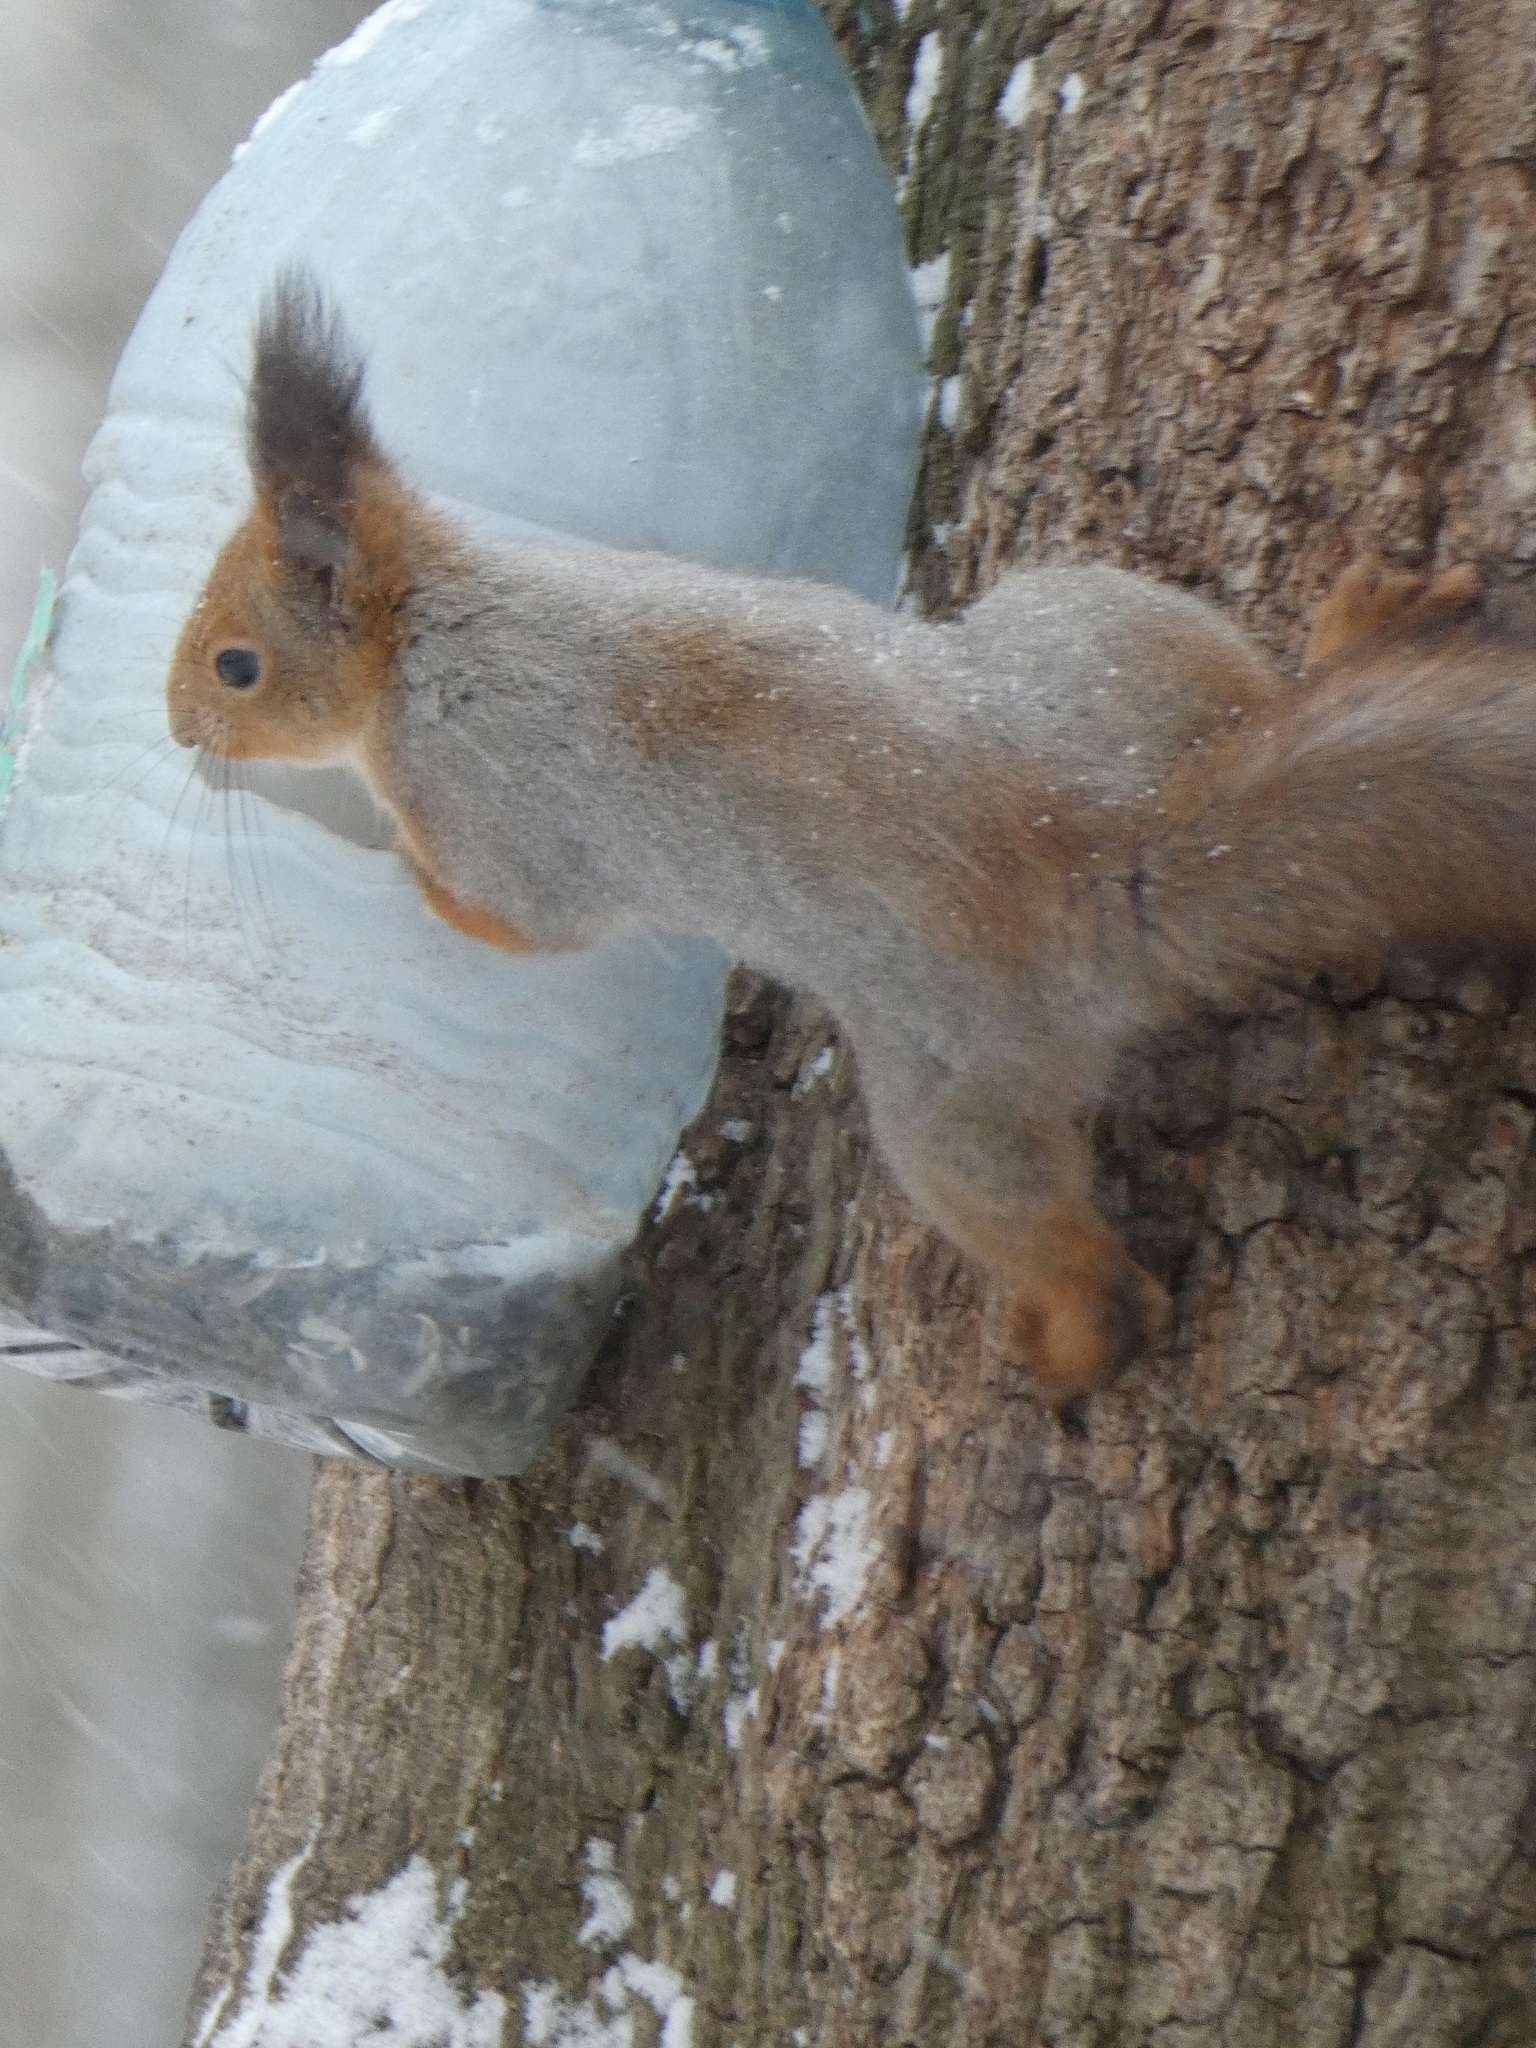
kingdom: Animalia
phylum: Chordata
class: Mammalia
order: Rodentia
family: Sciuridae
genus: Sciurus
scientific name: Sciurus vulgaris
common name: Eurasian red squirrel
